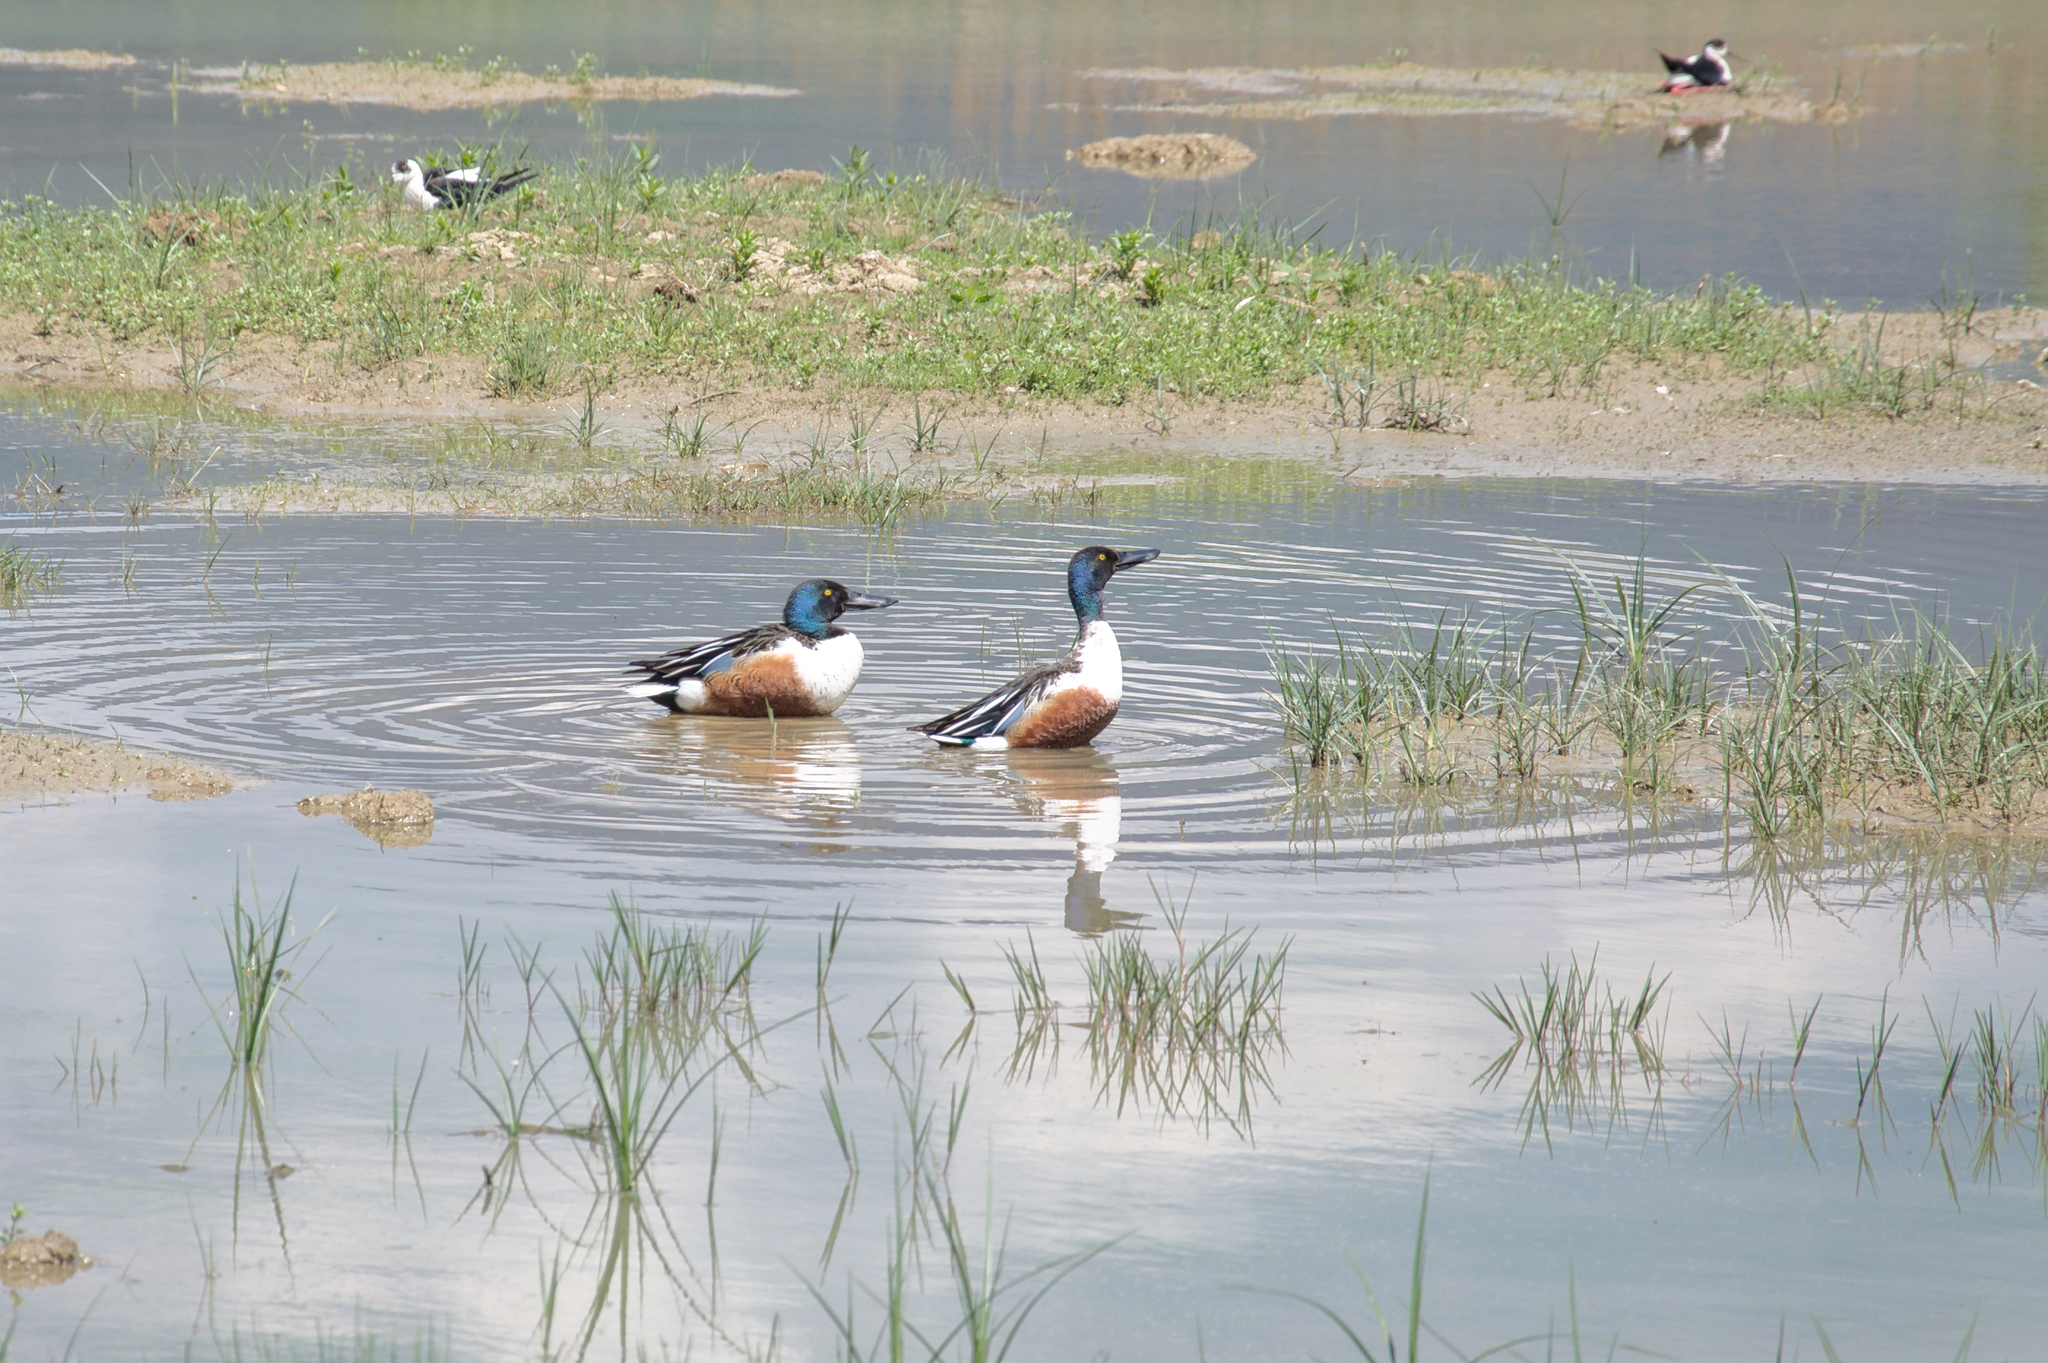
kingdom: Animalia
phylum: Chordata
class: Aves
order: Anseriformes
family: Anatidae
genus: Spatula
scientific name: Spatula clypeata
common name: Northern shoveler
